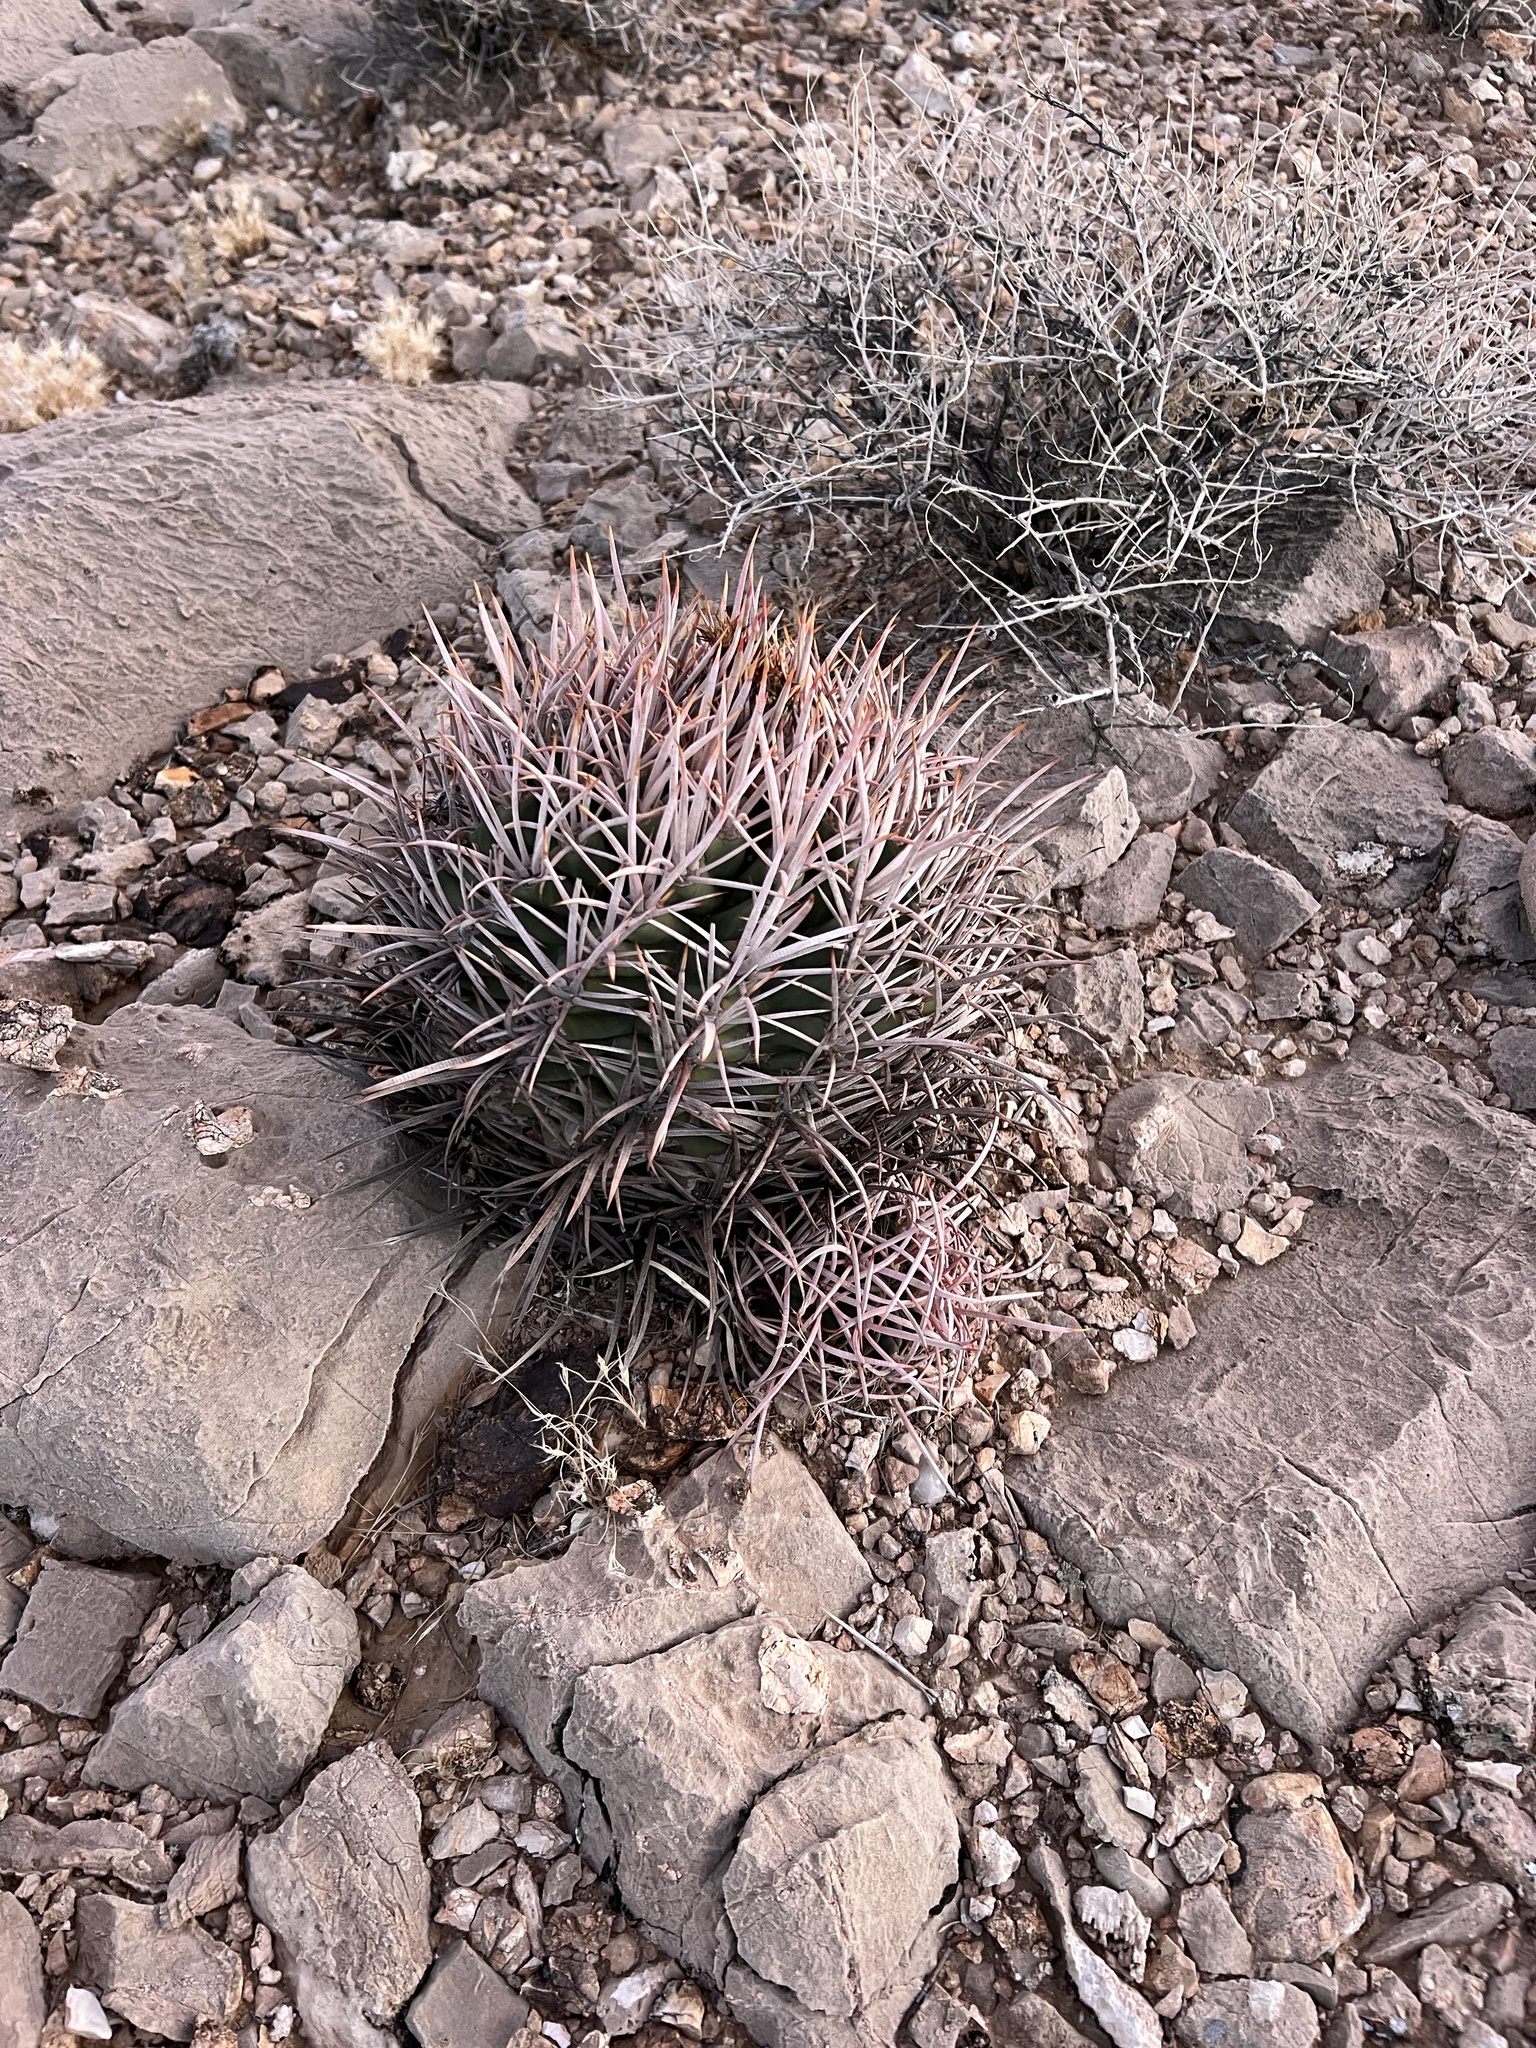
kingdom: Plantae
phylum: Tracheophyta
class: Magnoliopsida
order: Caryophyllales
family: Cactaceae
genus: Echinocactus
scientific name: Echinocactus polycephalus
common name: Cottontop cactus
